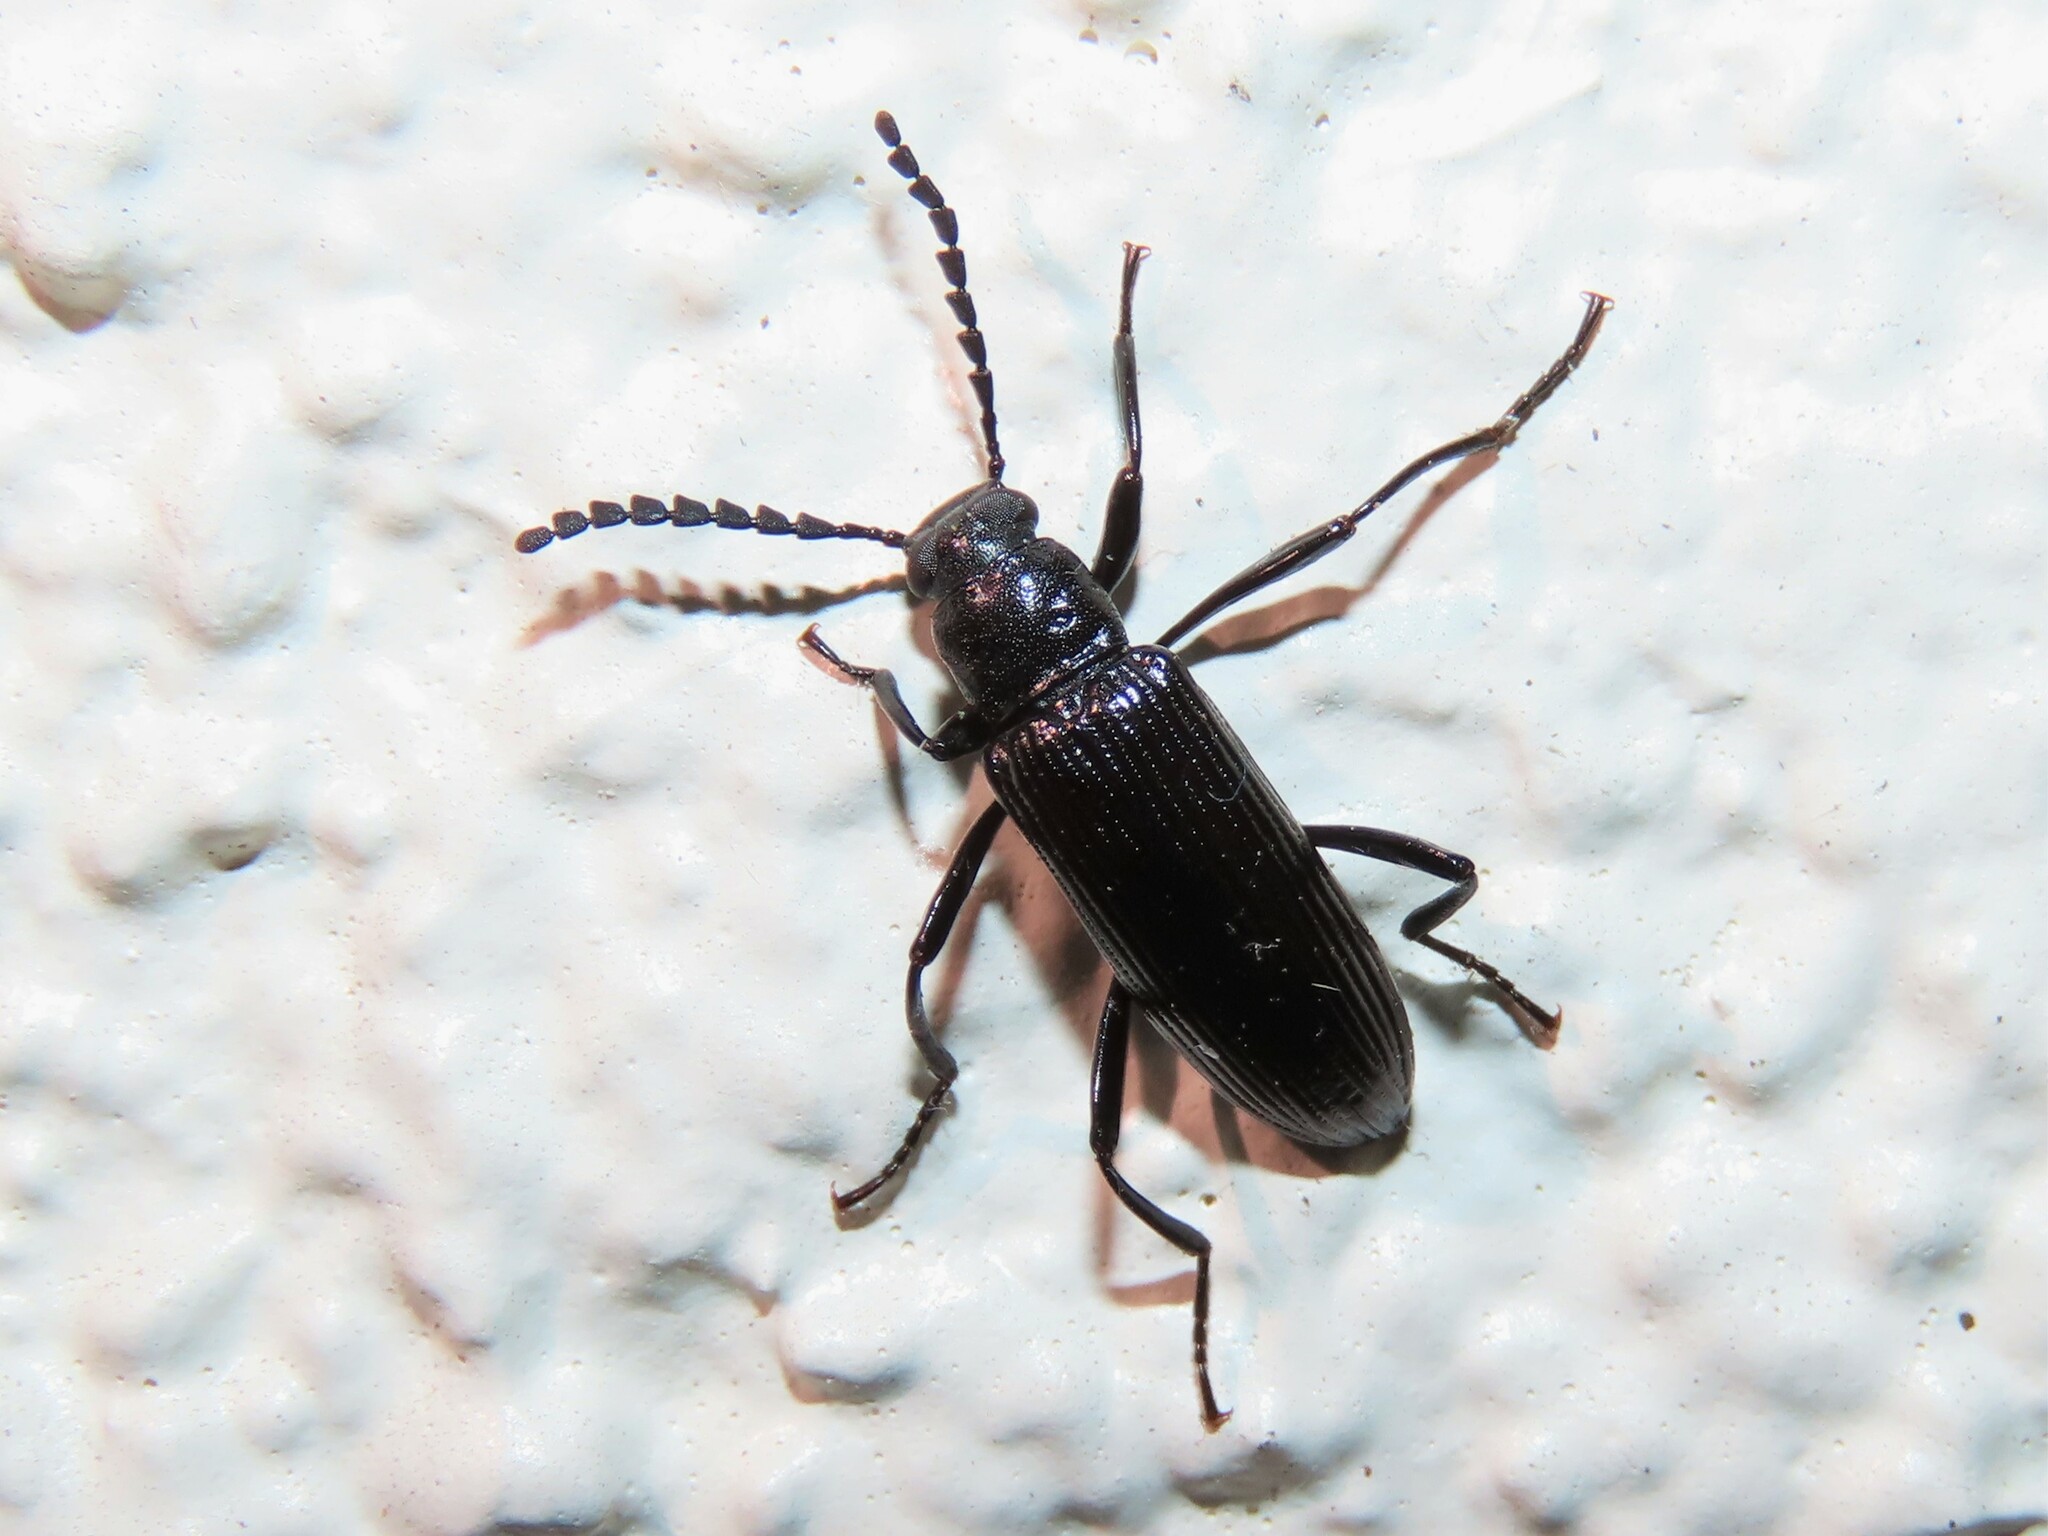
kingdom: Animalia
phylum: Arthropoda
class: Insecta
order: Coleoptera
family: Tenebrionidae
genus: Oploptera
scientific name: Oploptera
